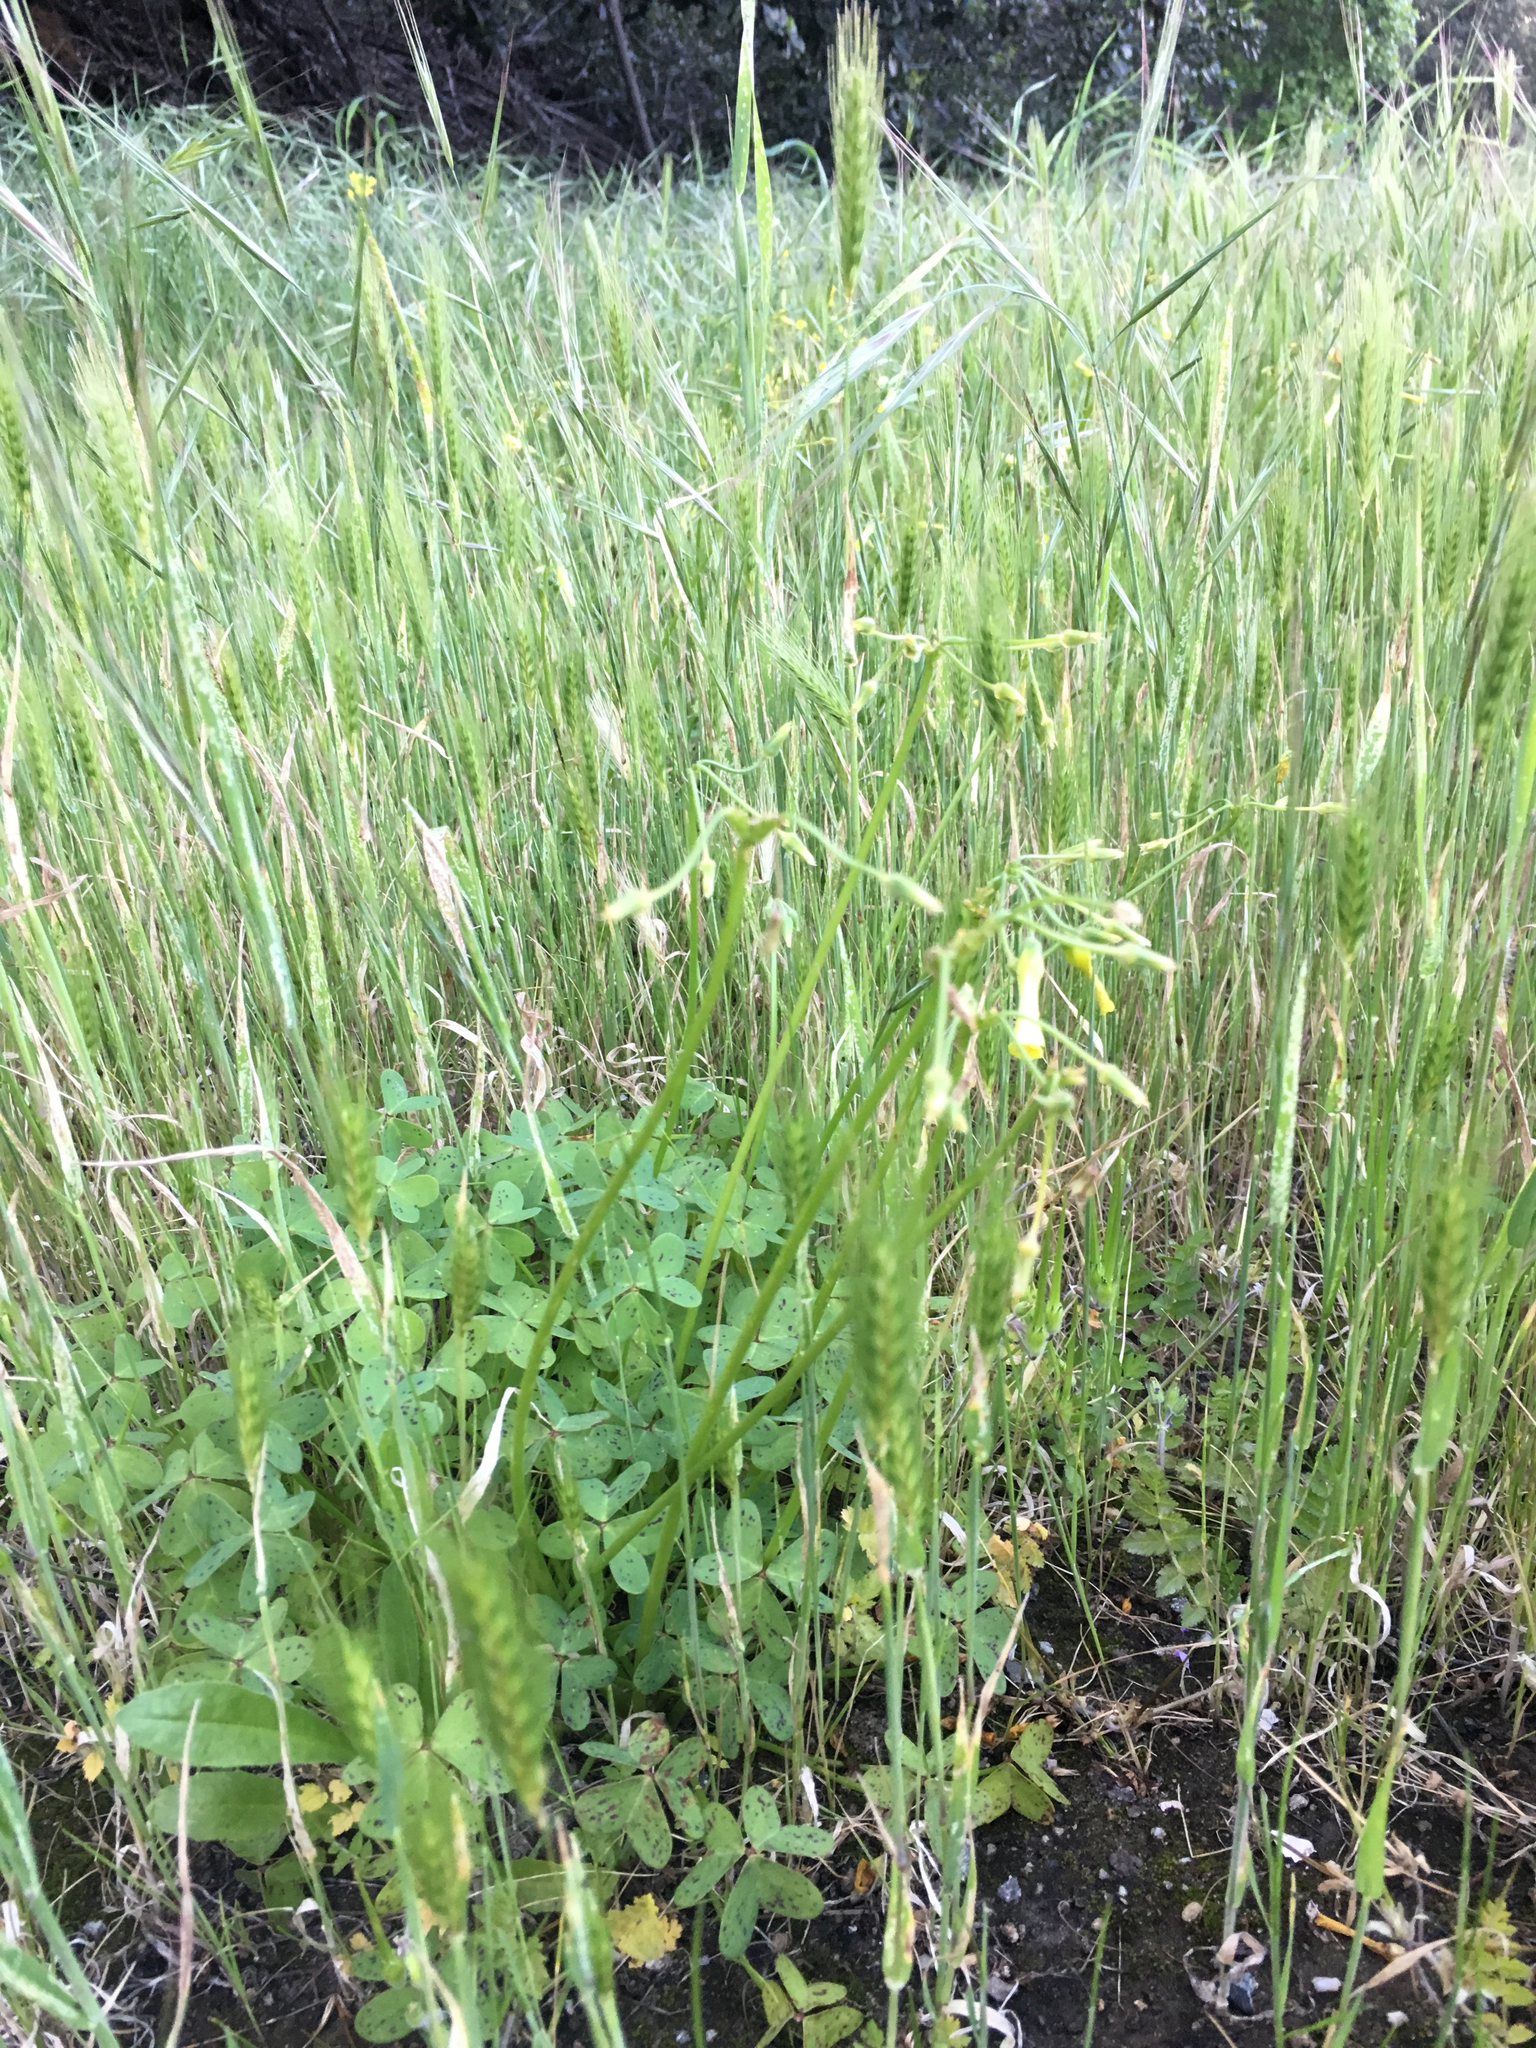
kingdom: Plantae
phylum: Tracheophyta
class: Magnoliopsida
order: Oxalidales
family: Oxalidaceae
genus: Oxalis
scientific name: Oxalis pes-caprae
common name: Bermuda-buttercup
